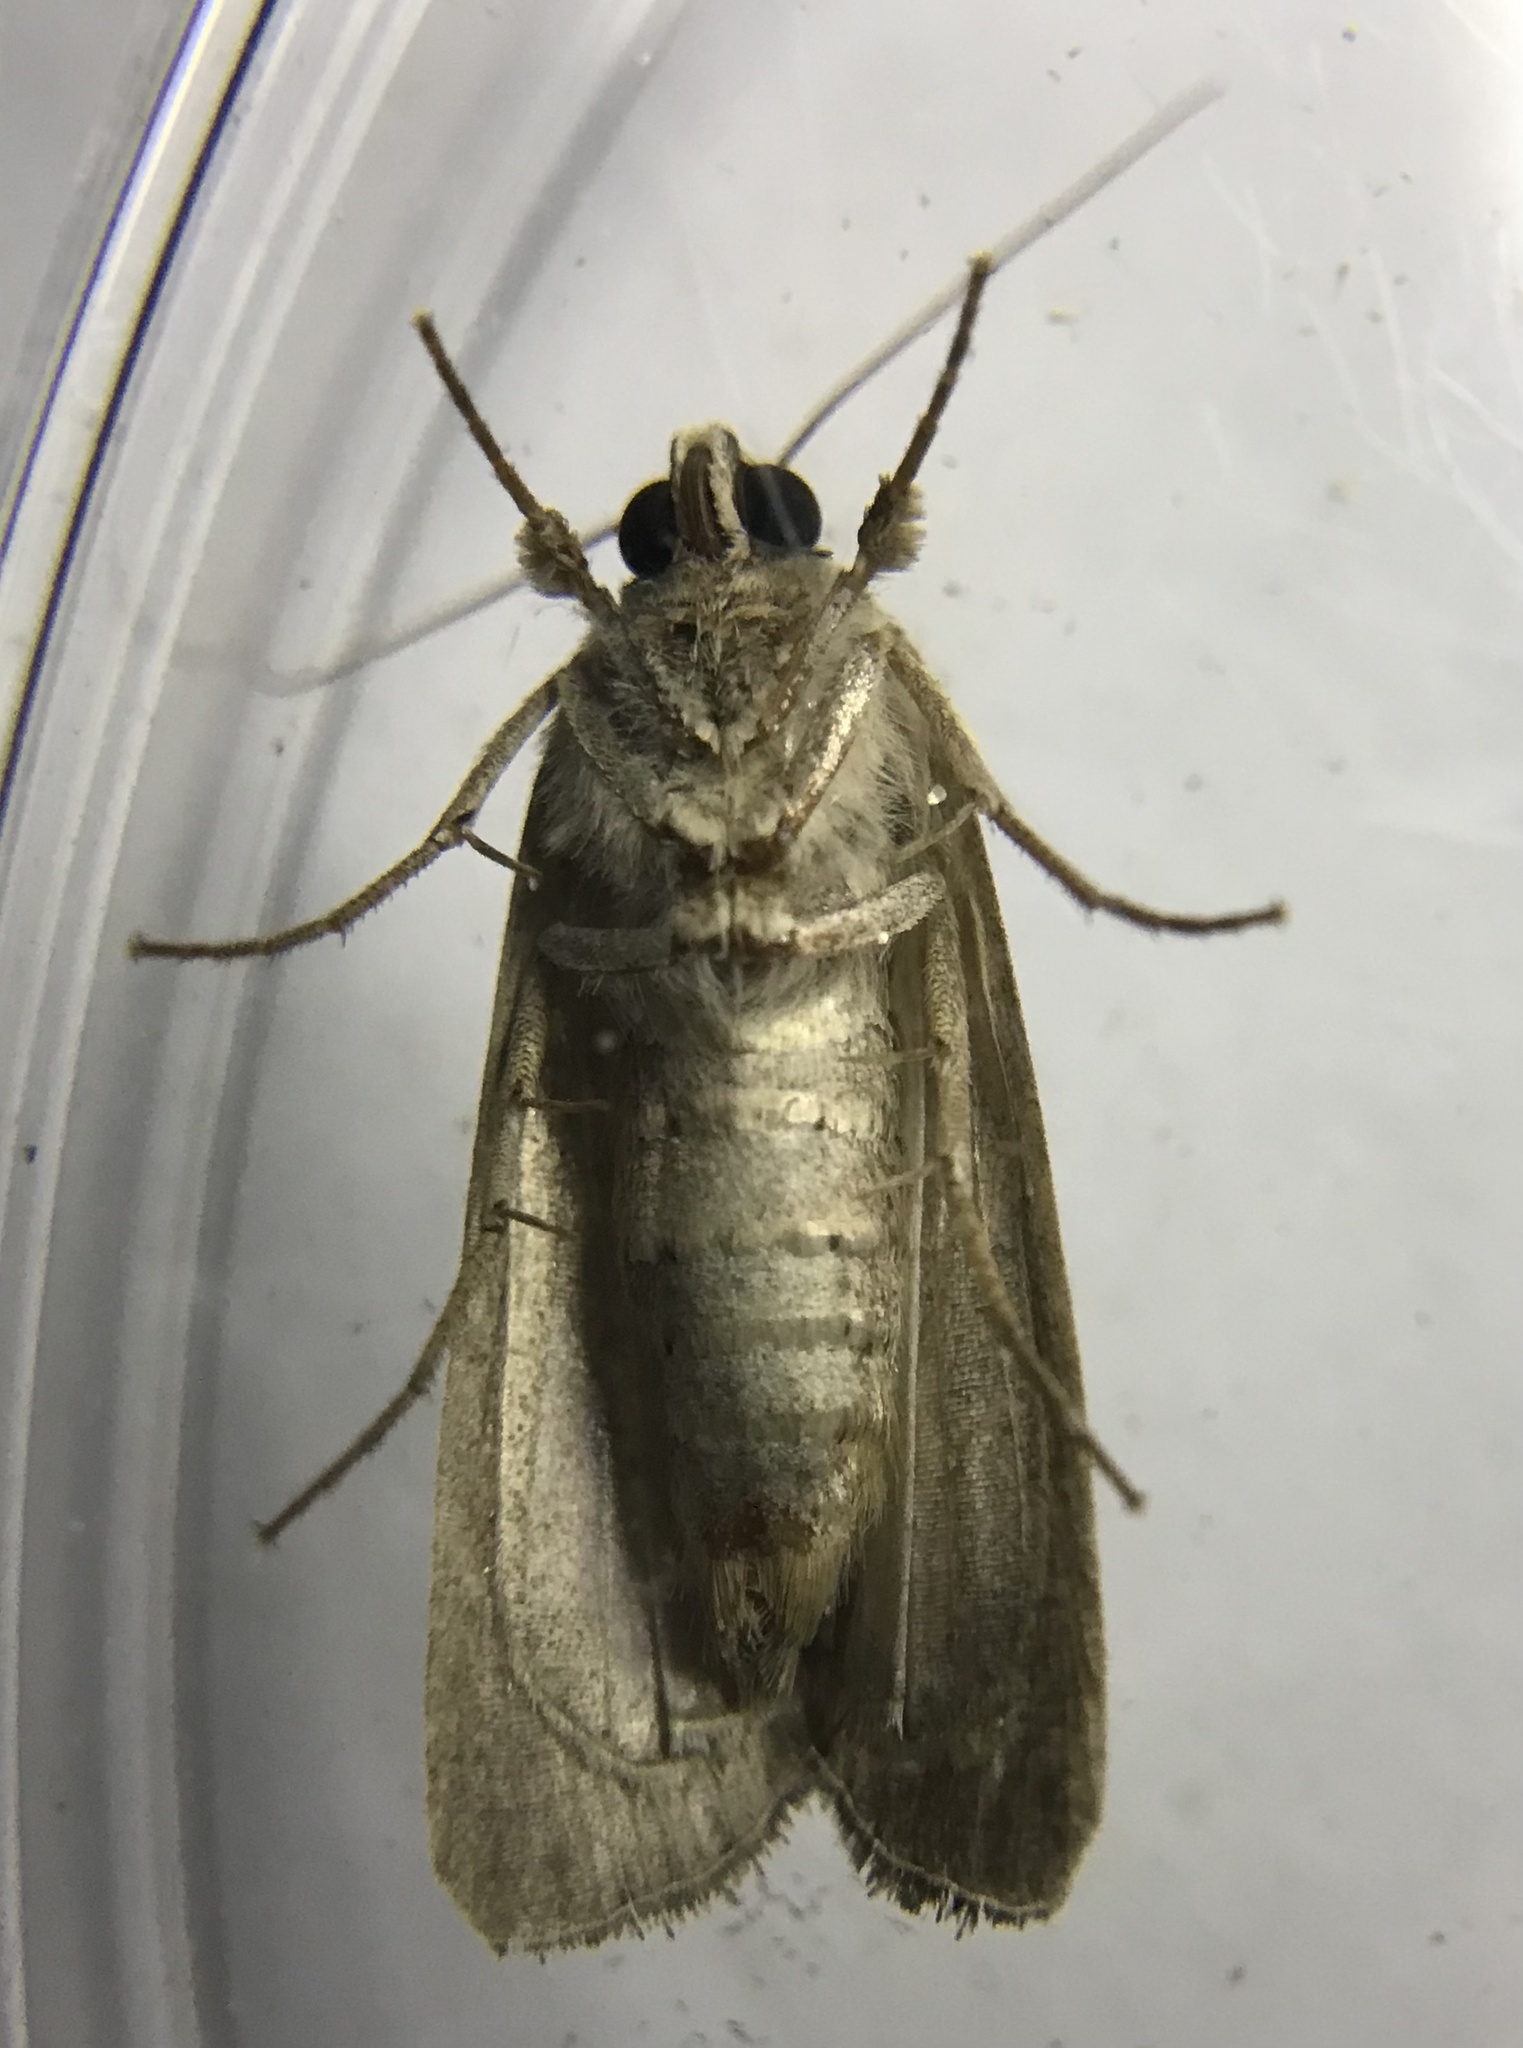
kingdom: Animalia
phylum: Arthropoda
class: Insecta
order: Lepidoptera
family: Noctuidae
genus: Spodoptera
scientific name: Spodoptera frugiperda
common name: Fall armyworm
